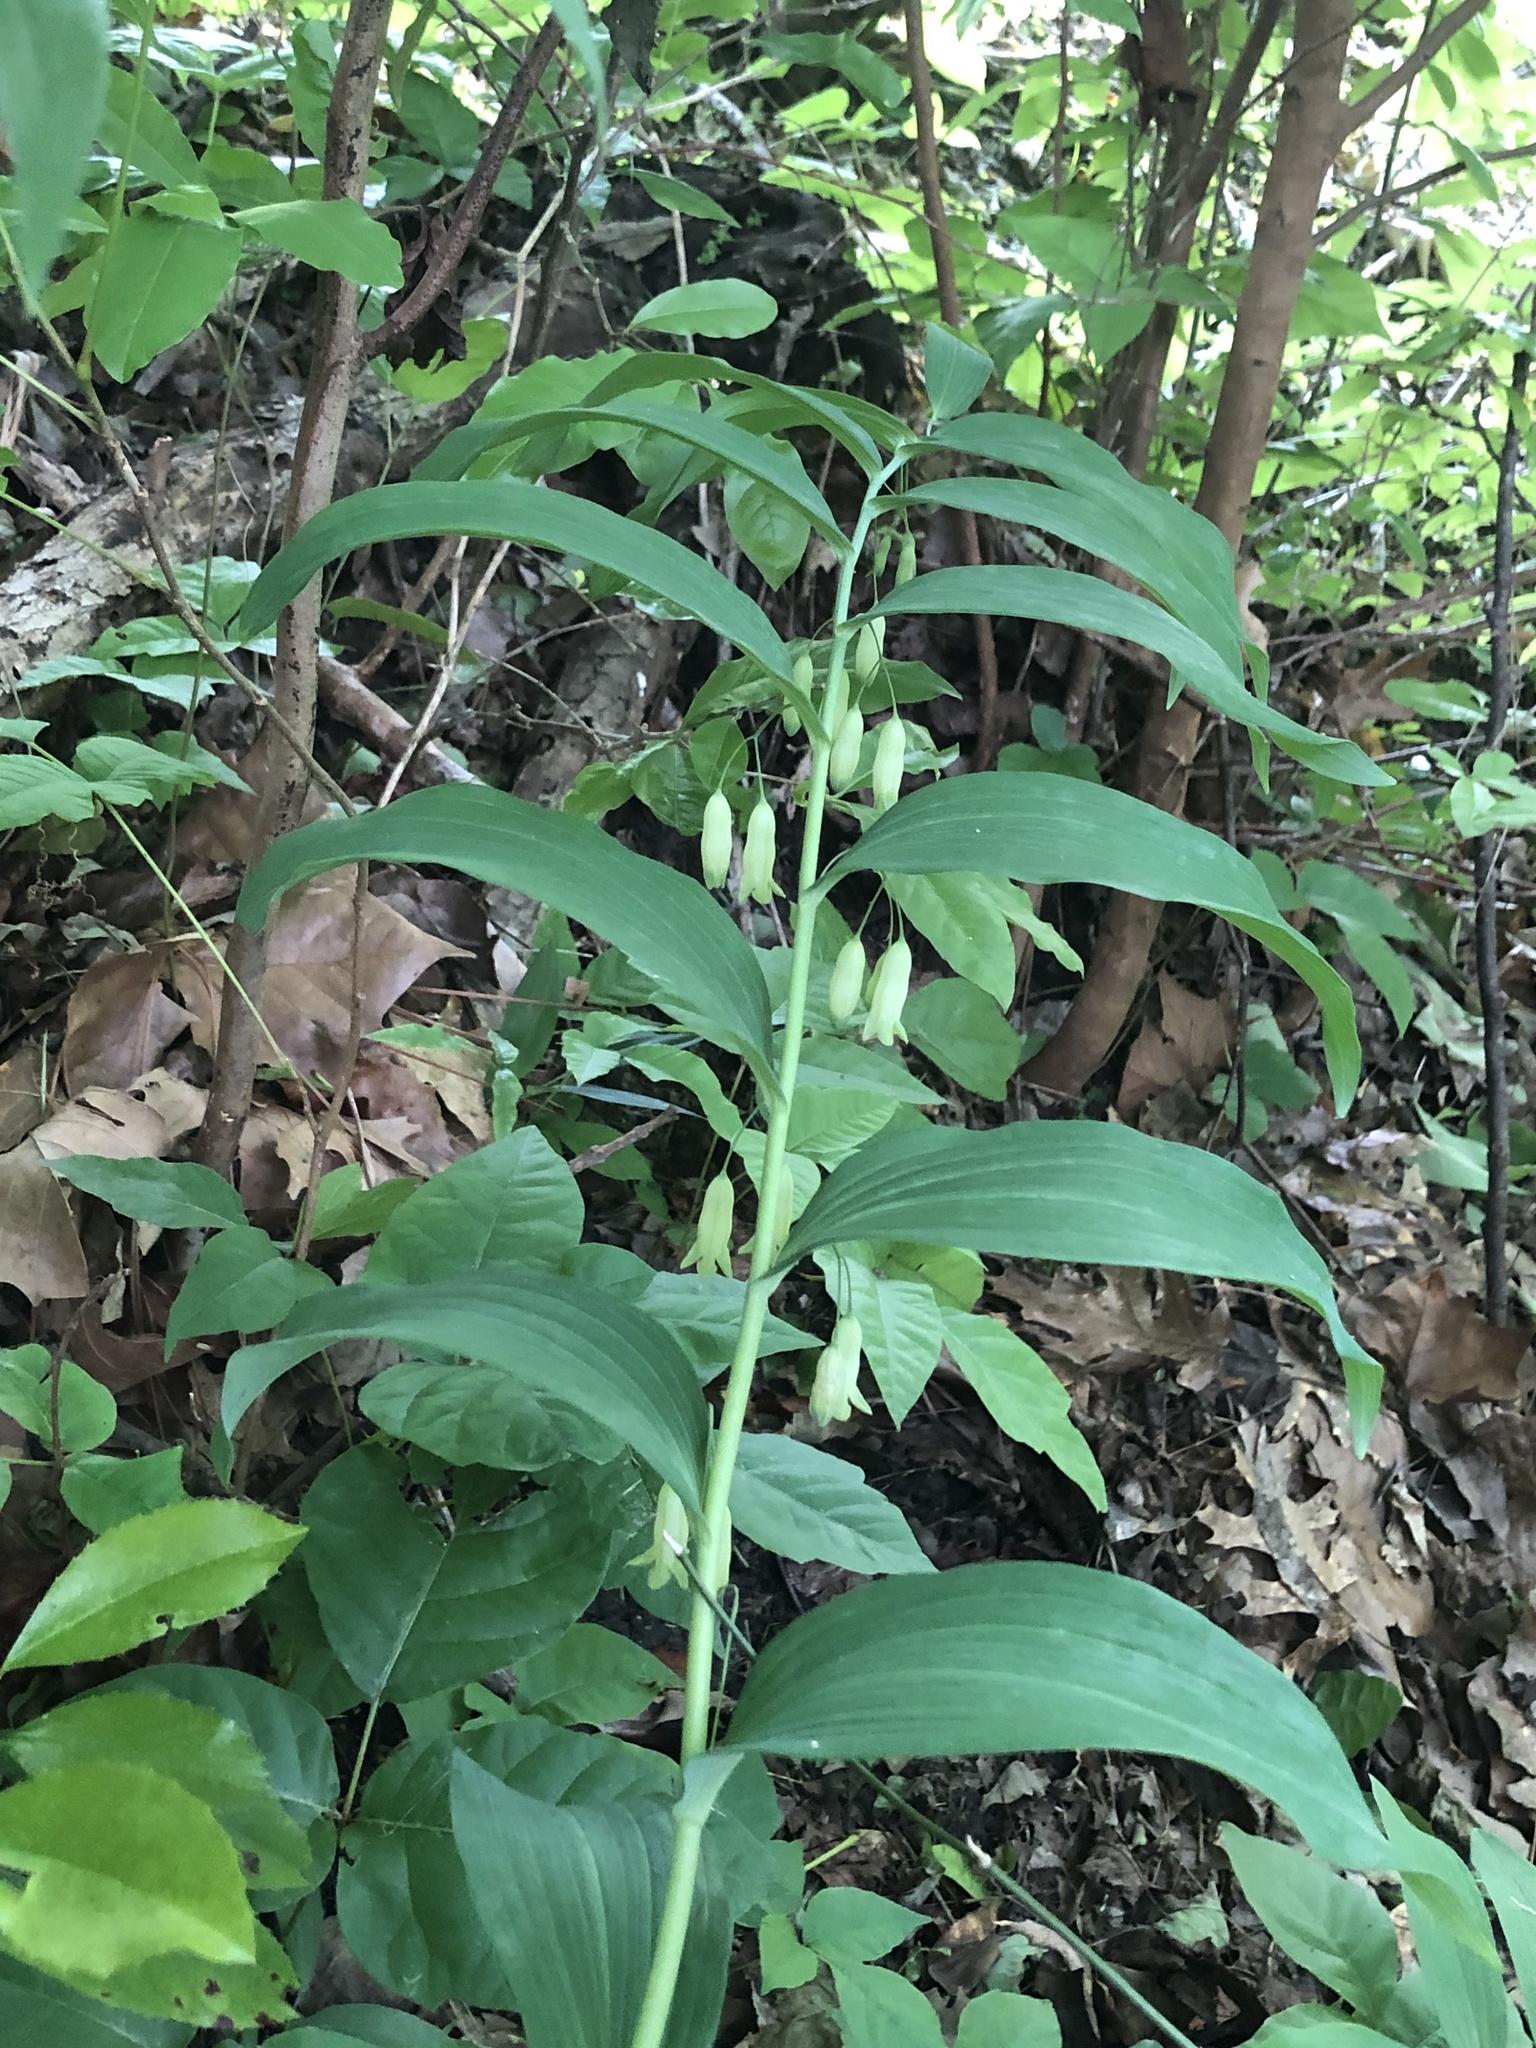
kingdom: Plantae
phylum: Tracheophyta
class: Liliopsida
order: Asparagales
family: Asparagaceae
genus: Polygonatum
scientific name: Polygonatum biflorum
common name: American solomon's-seal
